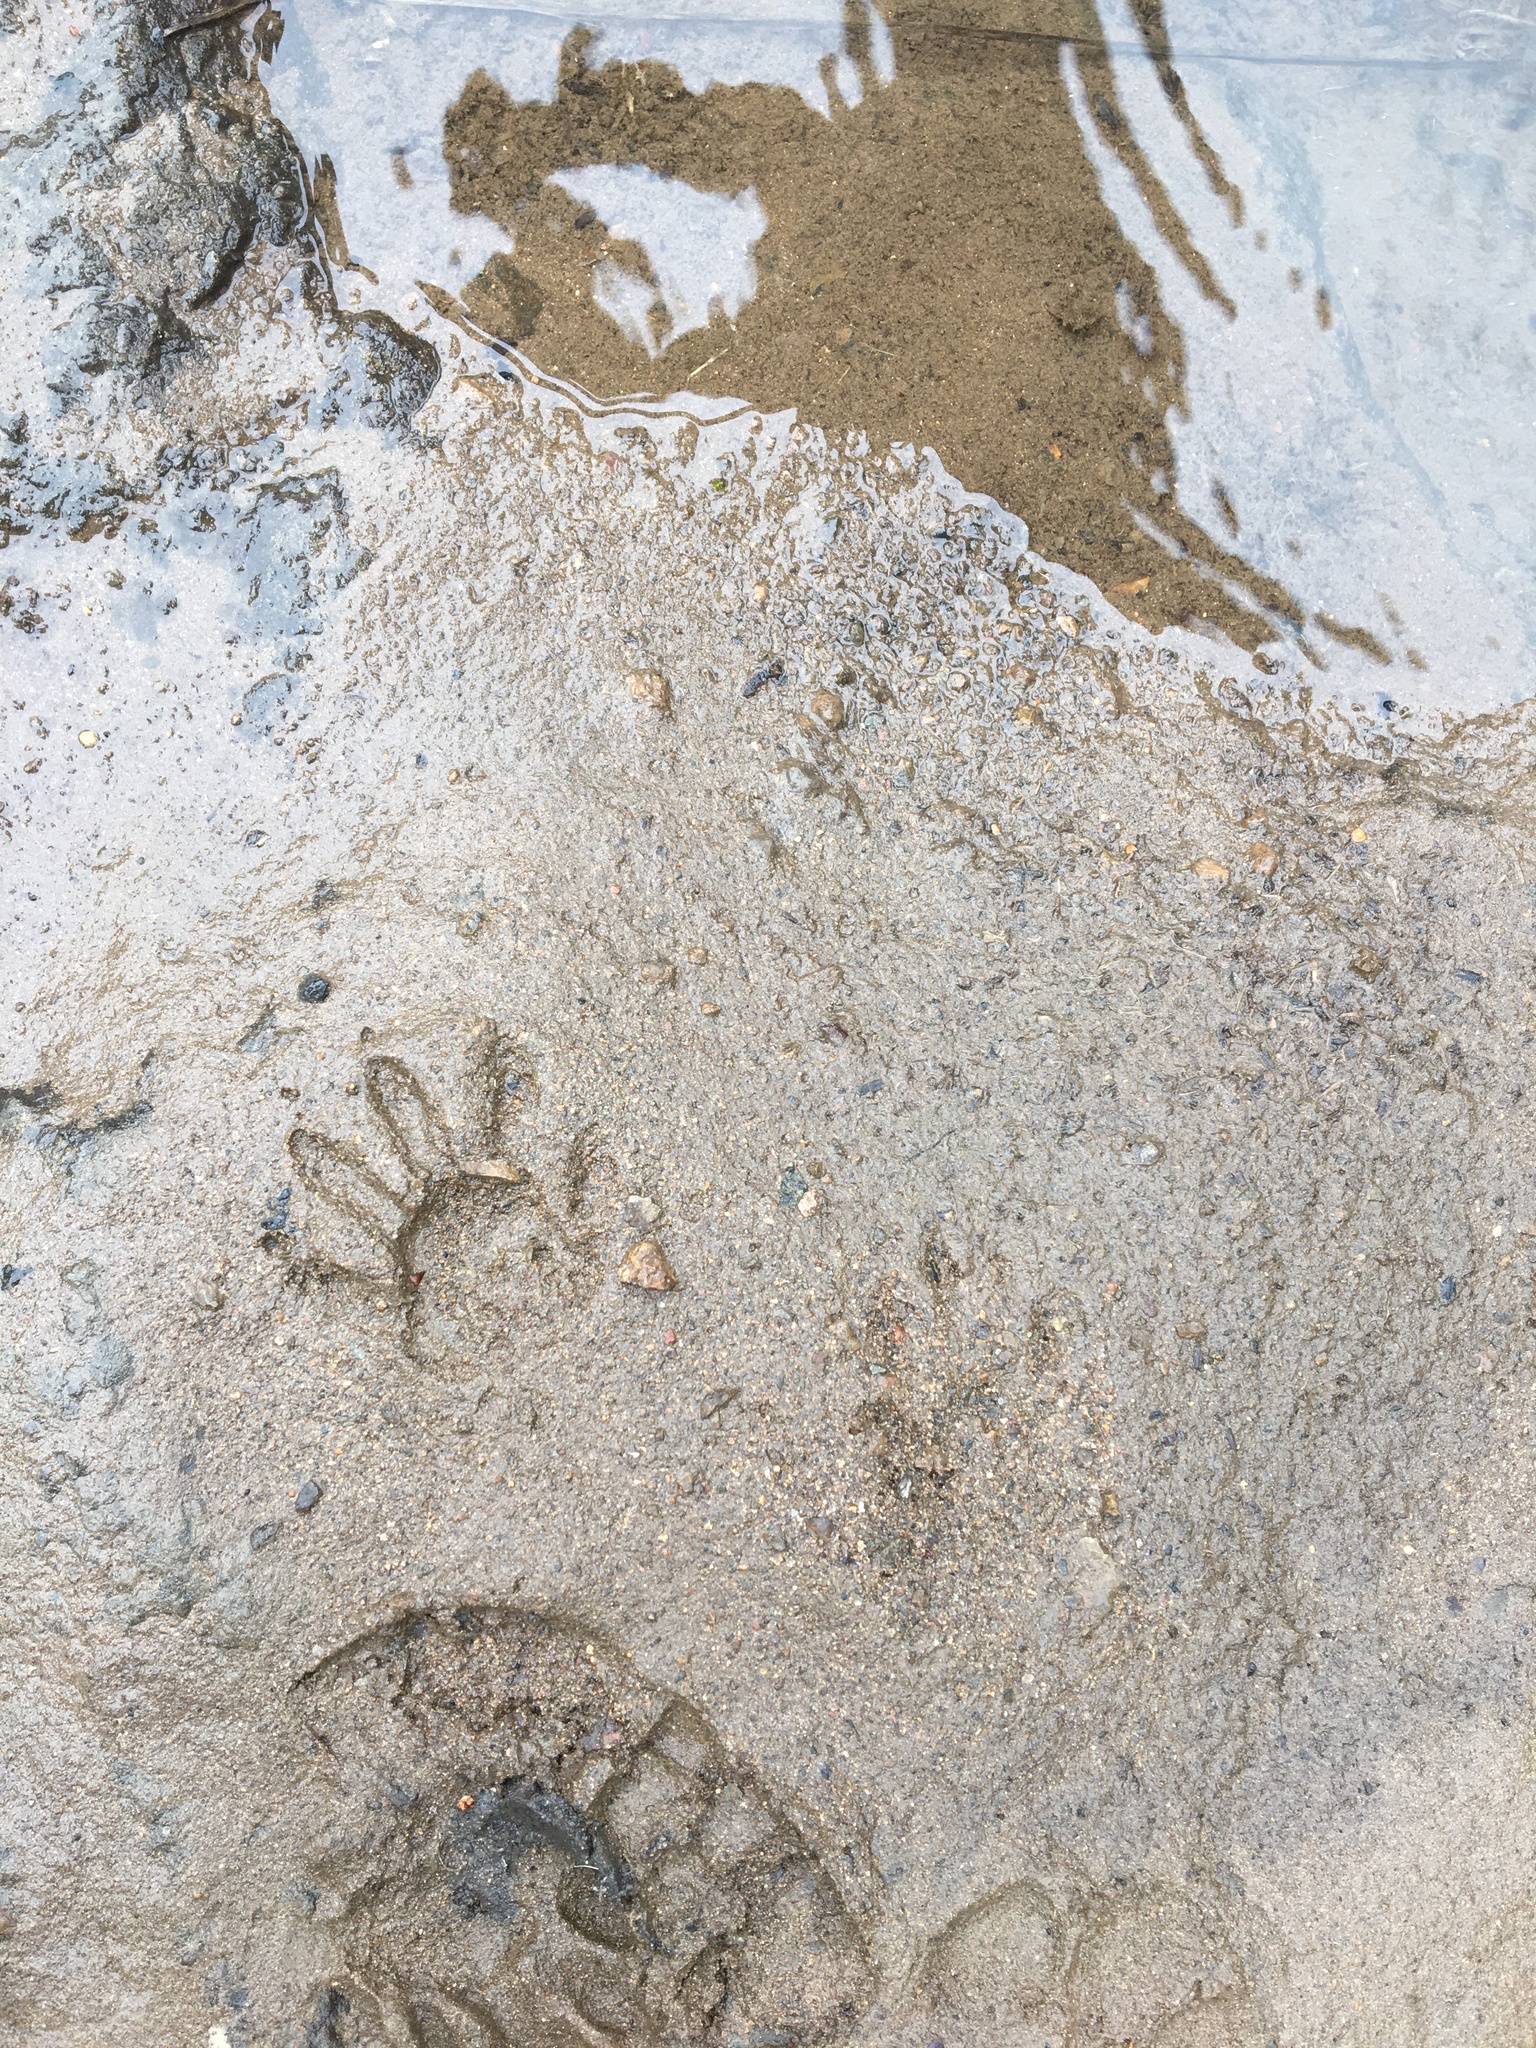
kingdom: Animalia
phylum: Chordata
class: Mammalia
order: Carnivora
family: Procyonidae
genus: Procyon
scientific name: Procyon lotor
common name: Raccoon
